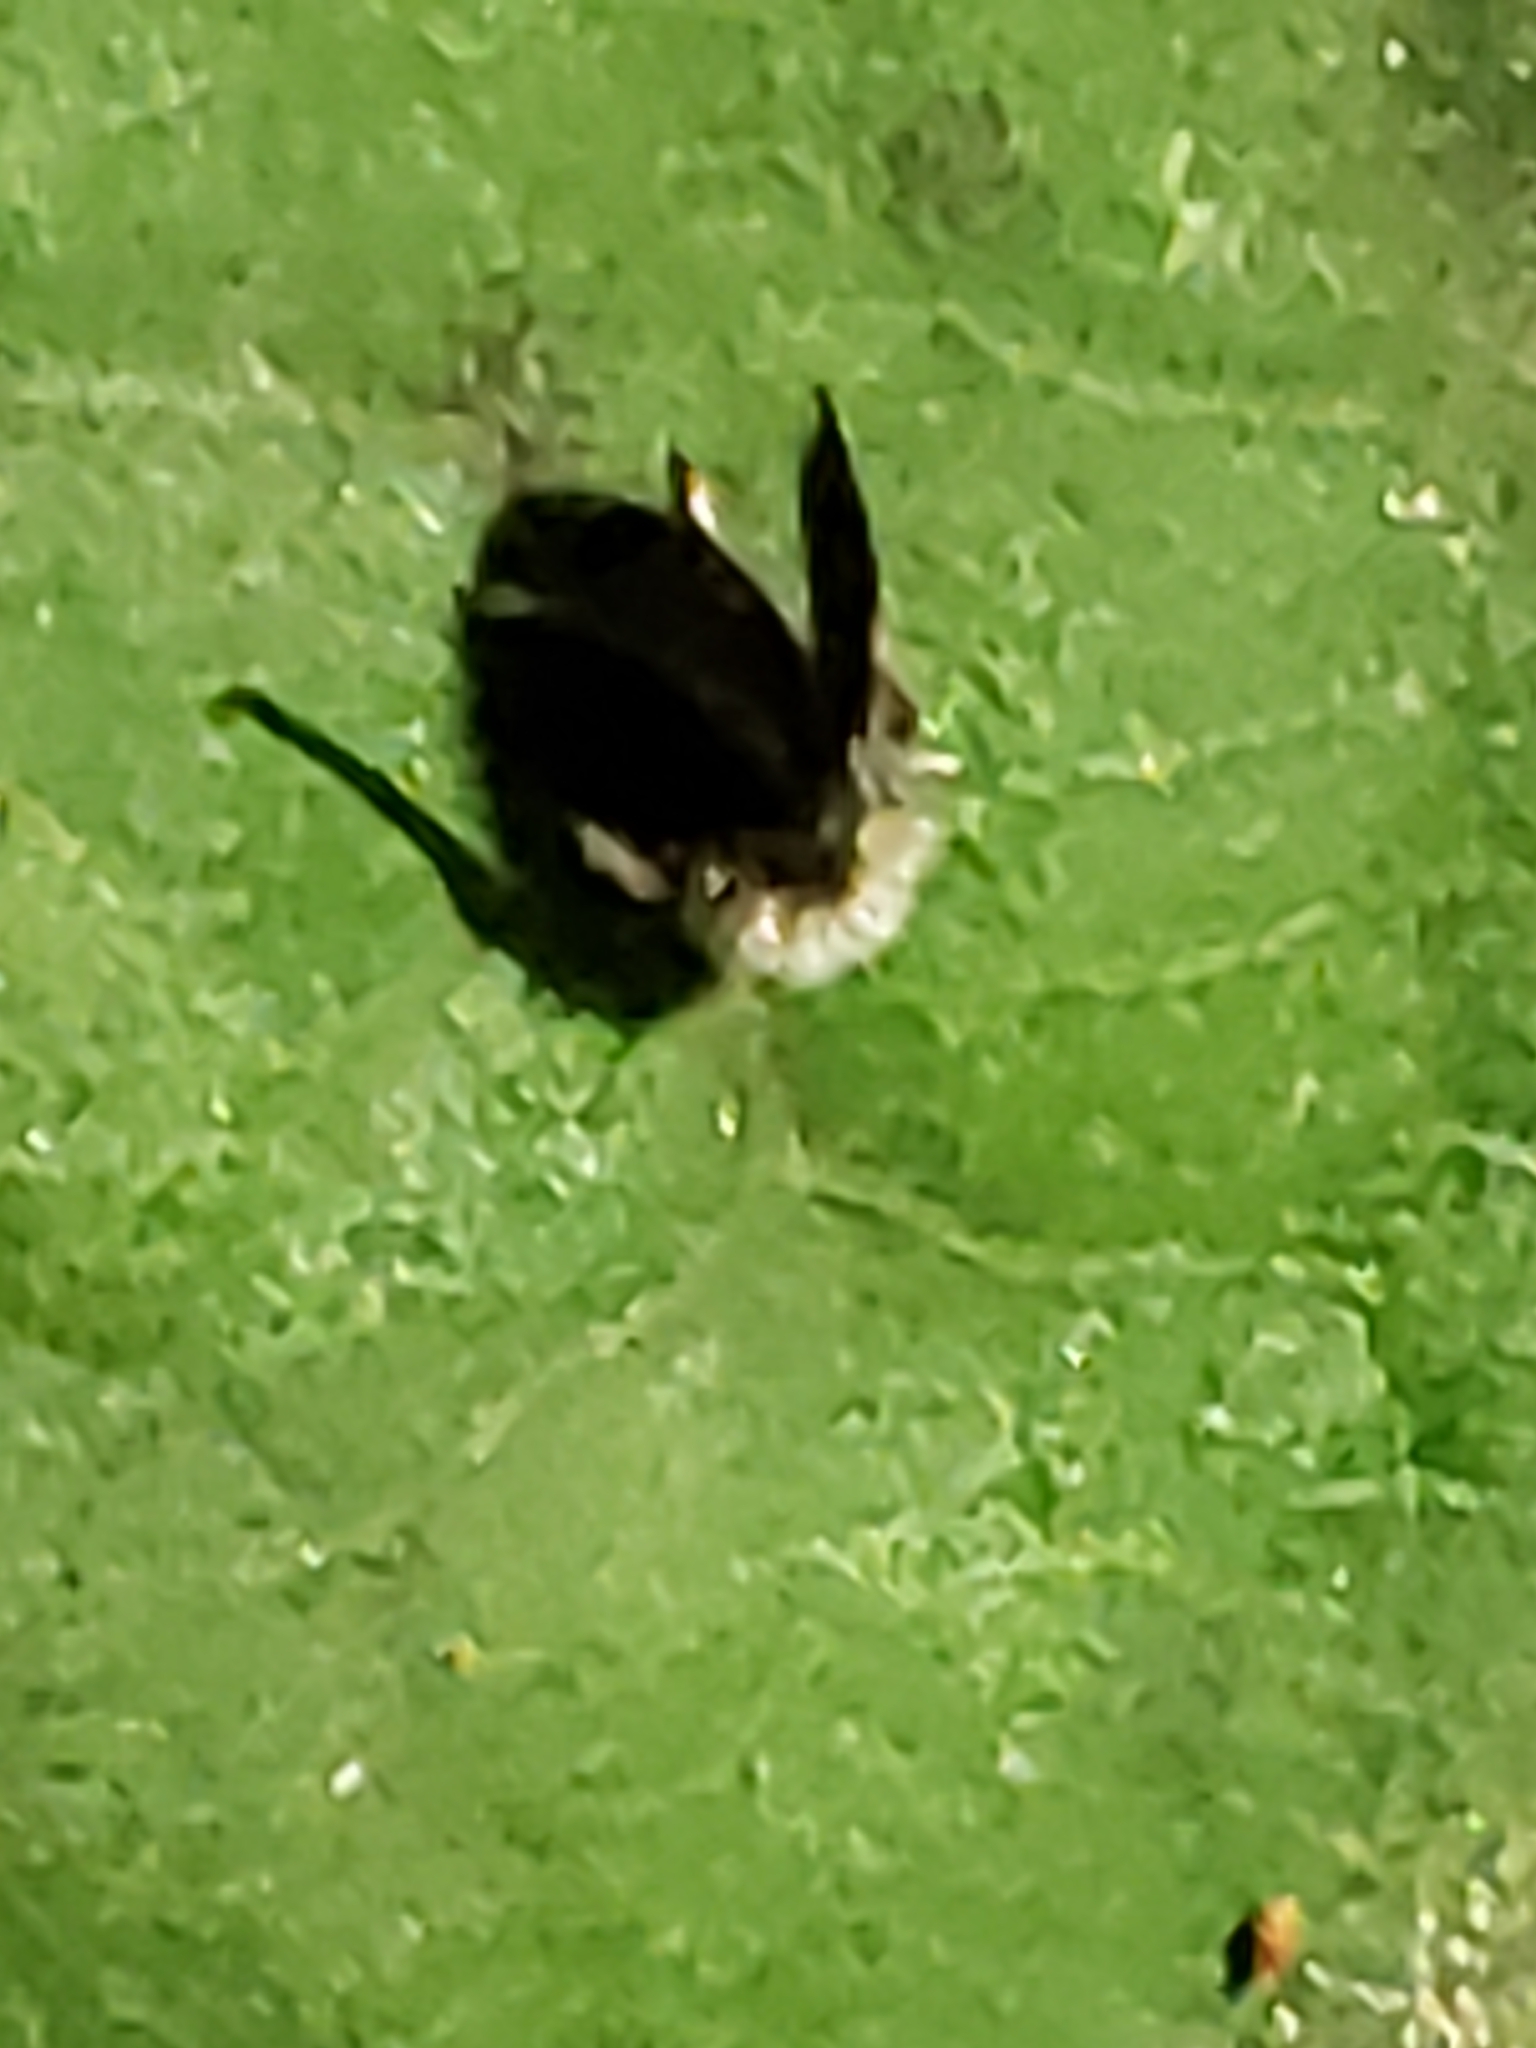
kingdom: Animalia
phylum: Arthropoda
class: Insecta
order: Diptera
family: Psychodidae
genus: Setomima
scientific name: Setomima
